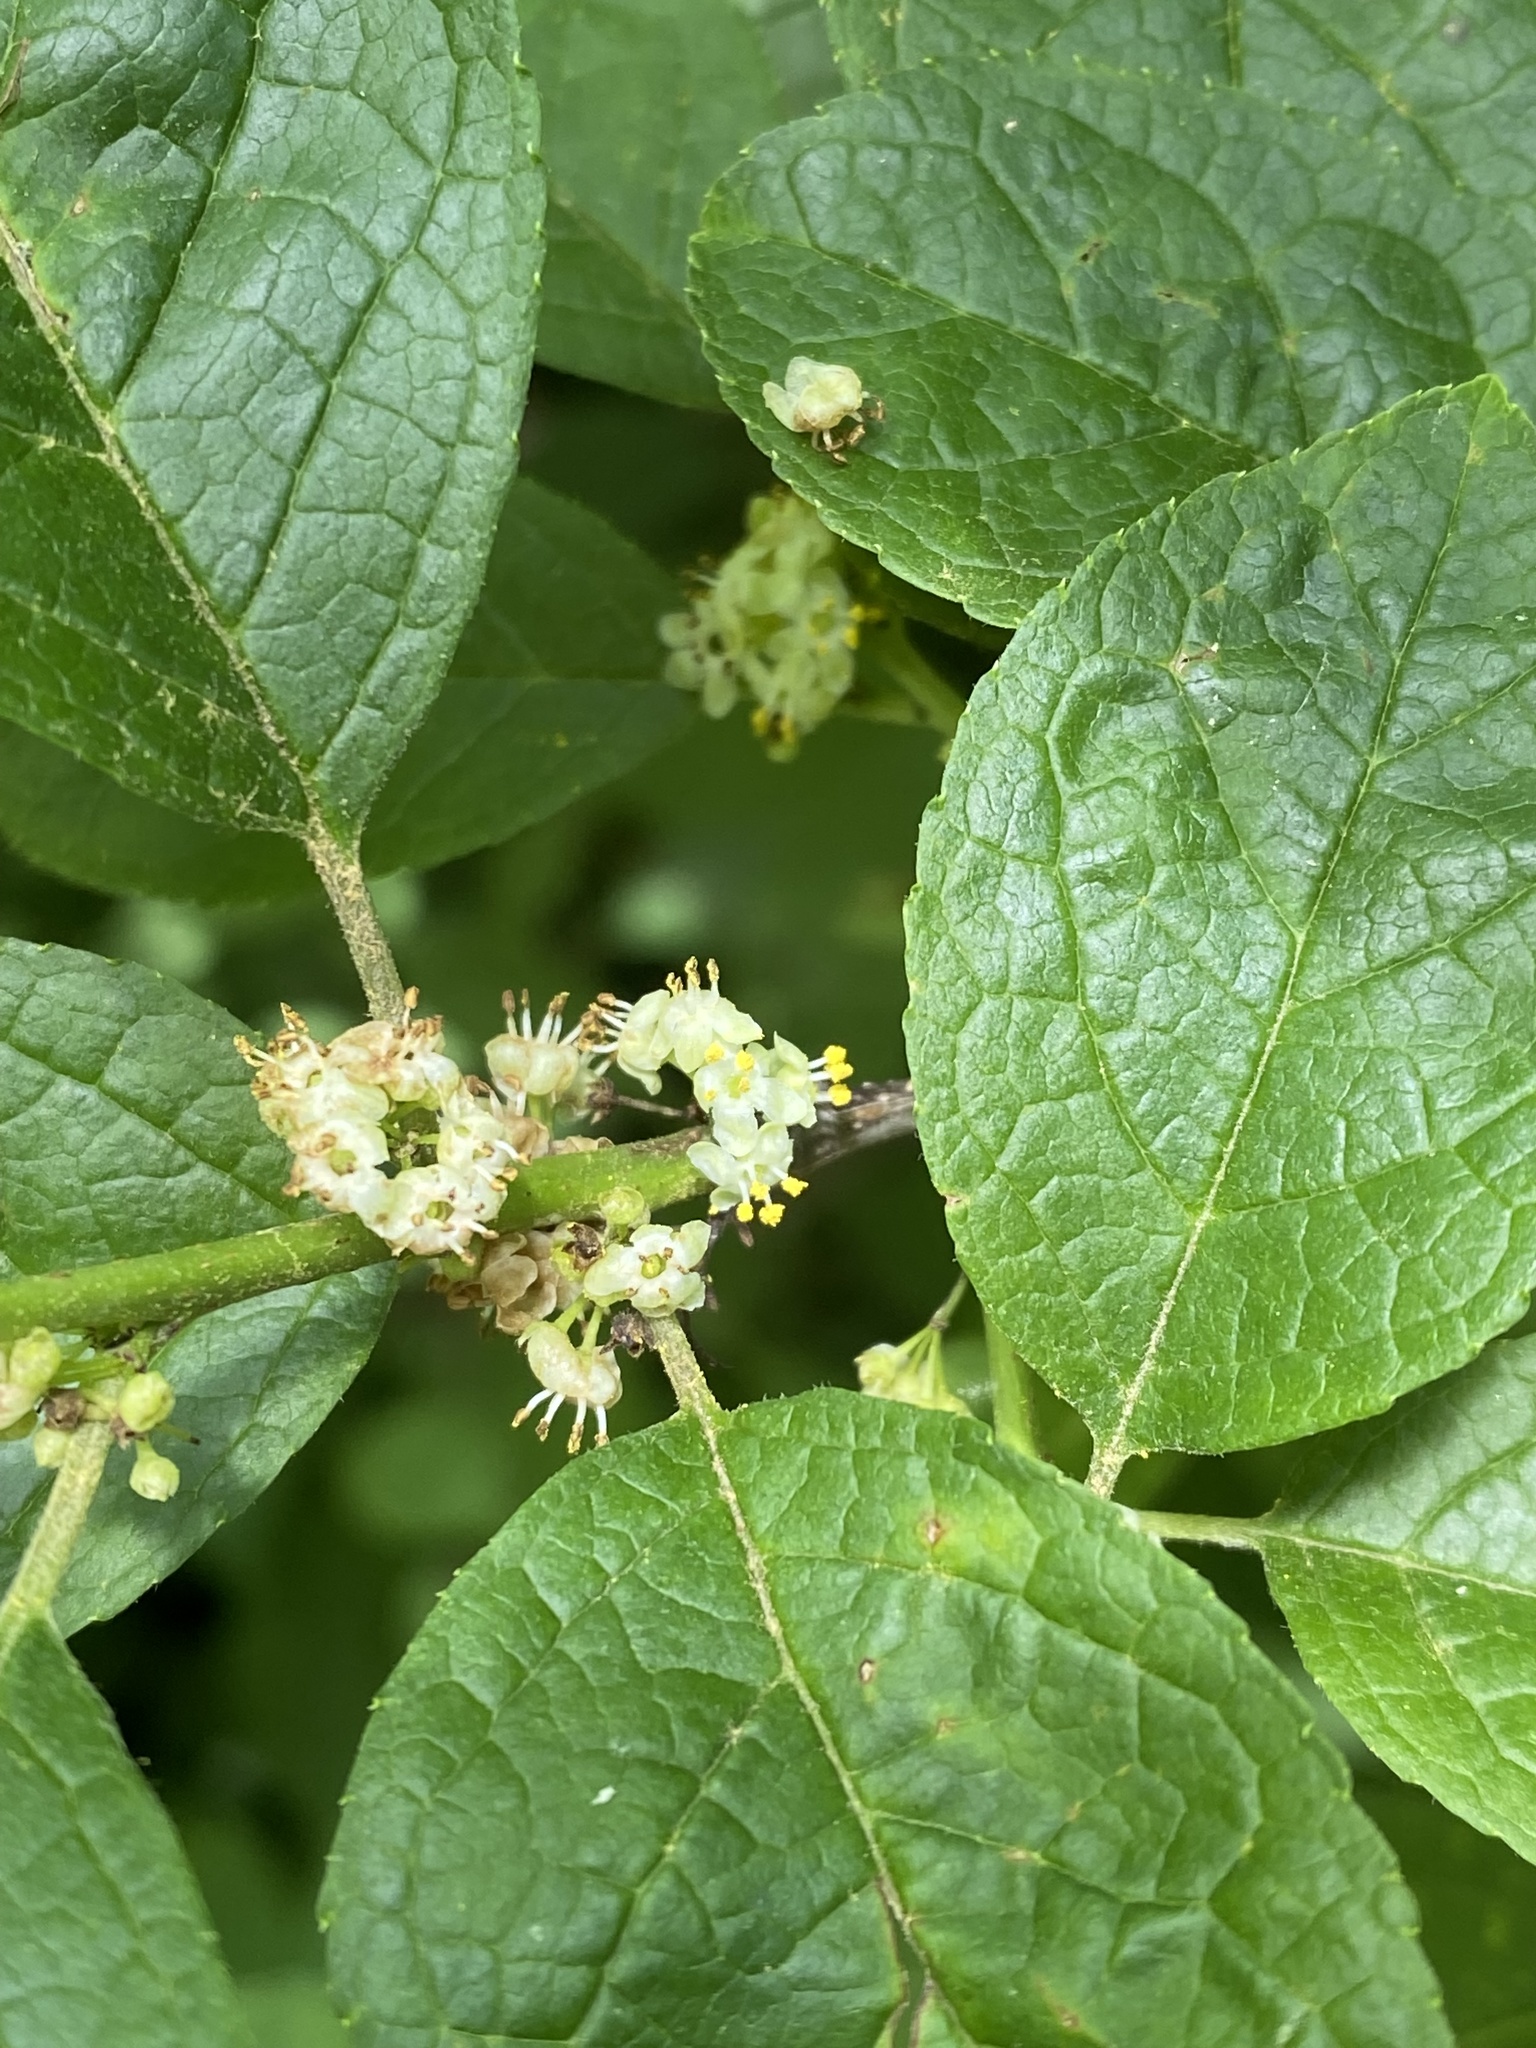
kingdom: Plantae
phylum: Tracheophyta
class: Magnoliopsida
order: Aquifoliales
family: Aquifoliaceae
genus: Ilex
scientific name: Ilex verticillata
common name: Virginia winterberry
